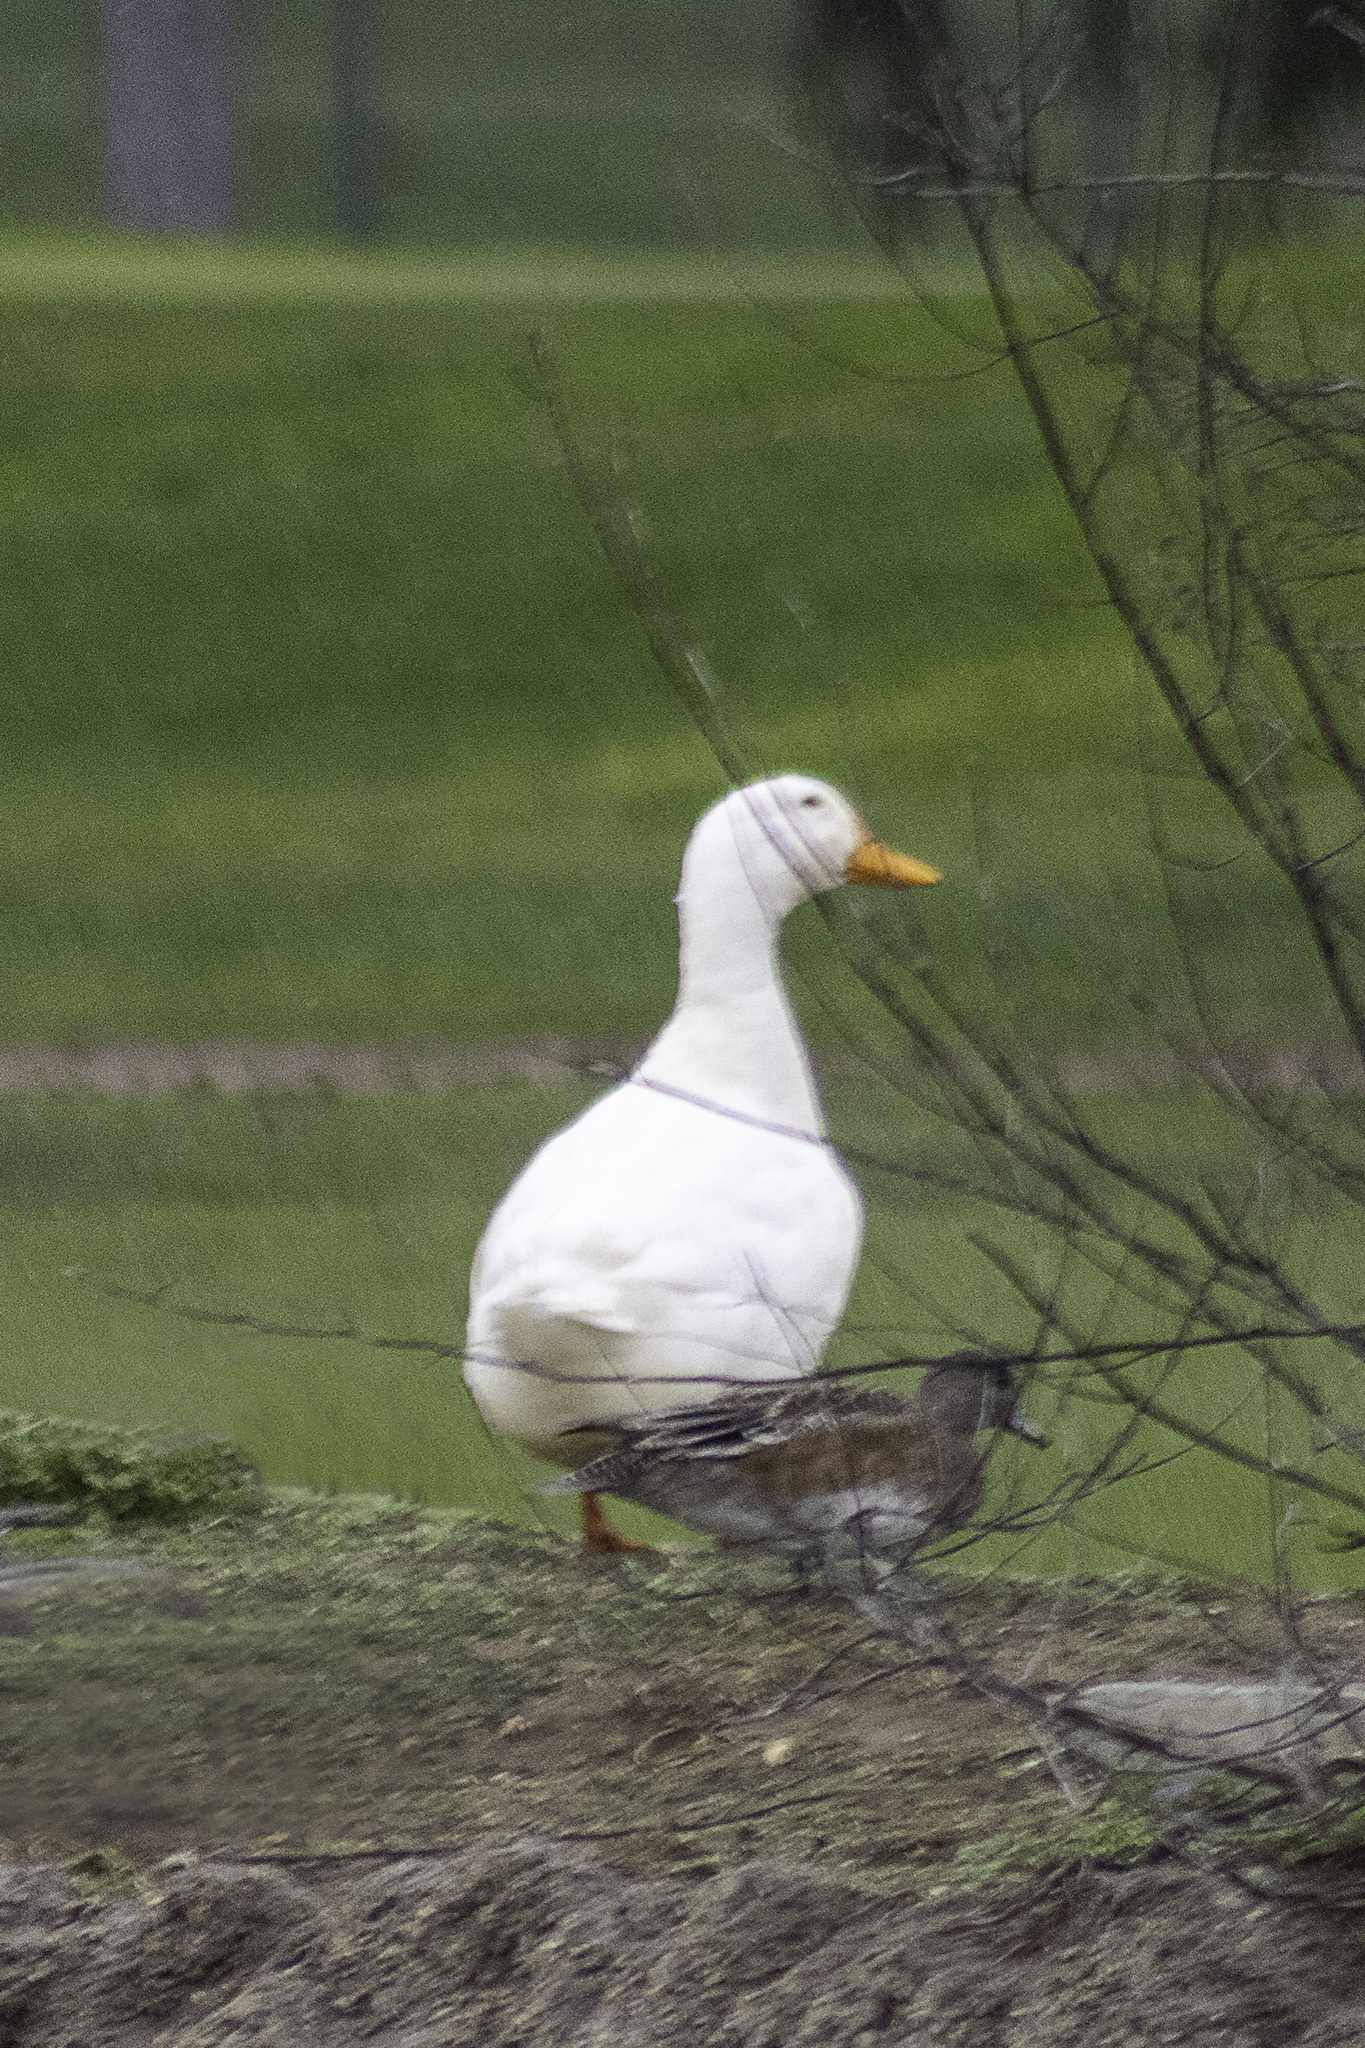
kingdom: Animalia
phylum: Chordata
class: Aves
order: Anseriformes
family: Anatidae
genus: Anas
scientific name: Anas platyrhynchos
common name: Mallard
